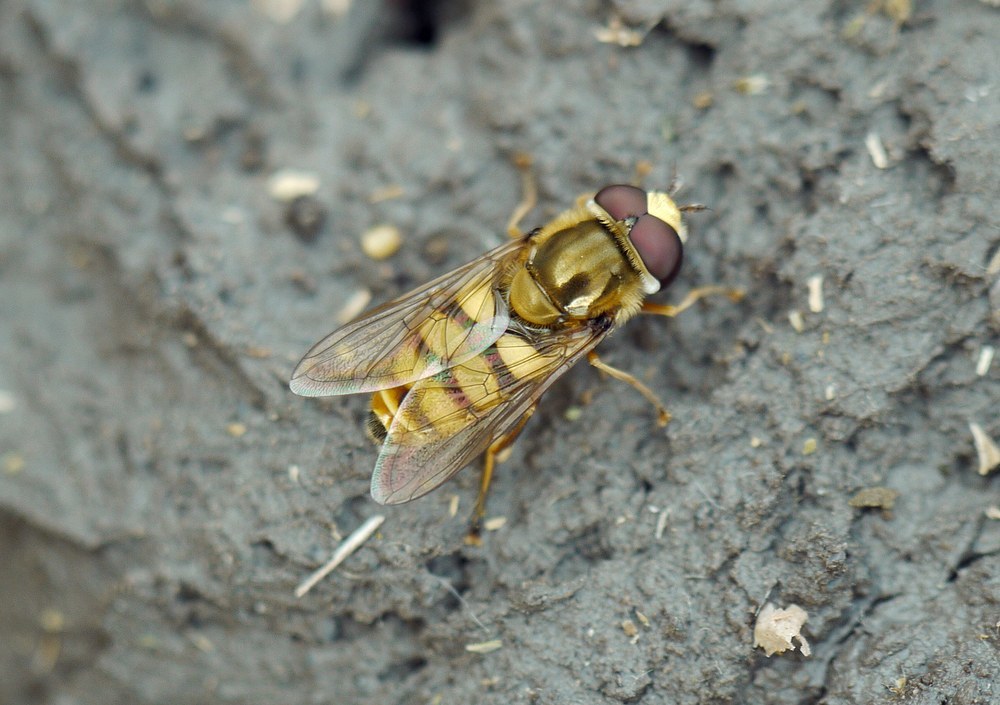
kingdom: Animalia
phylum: Arthropoda
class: Insecta
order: Diptera
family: Syrphidae
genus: Eupeodes
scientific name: Eupeodes corollae
